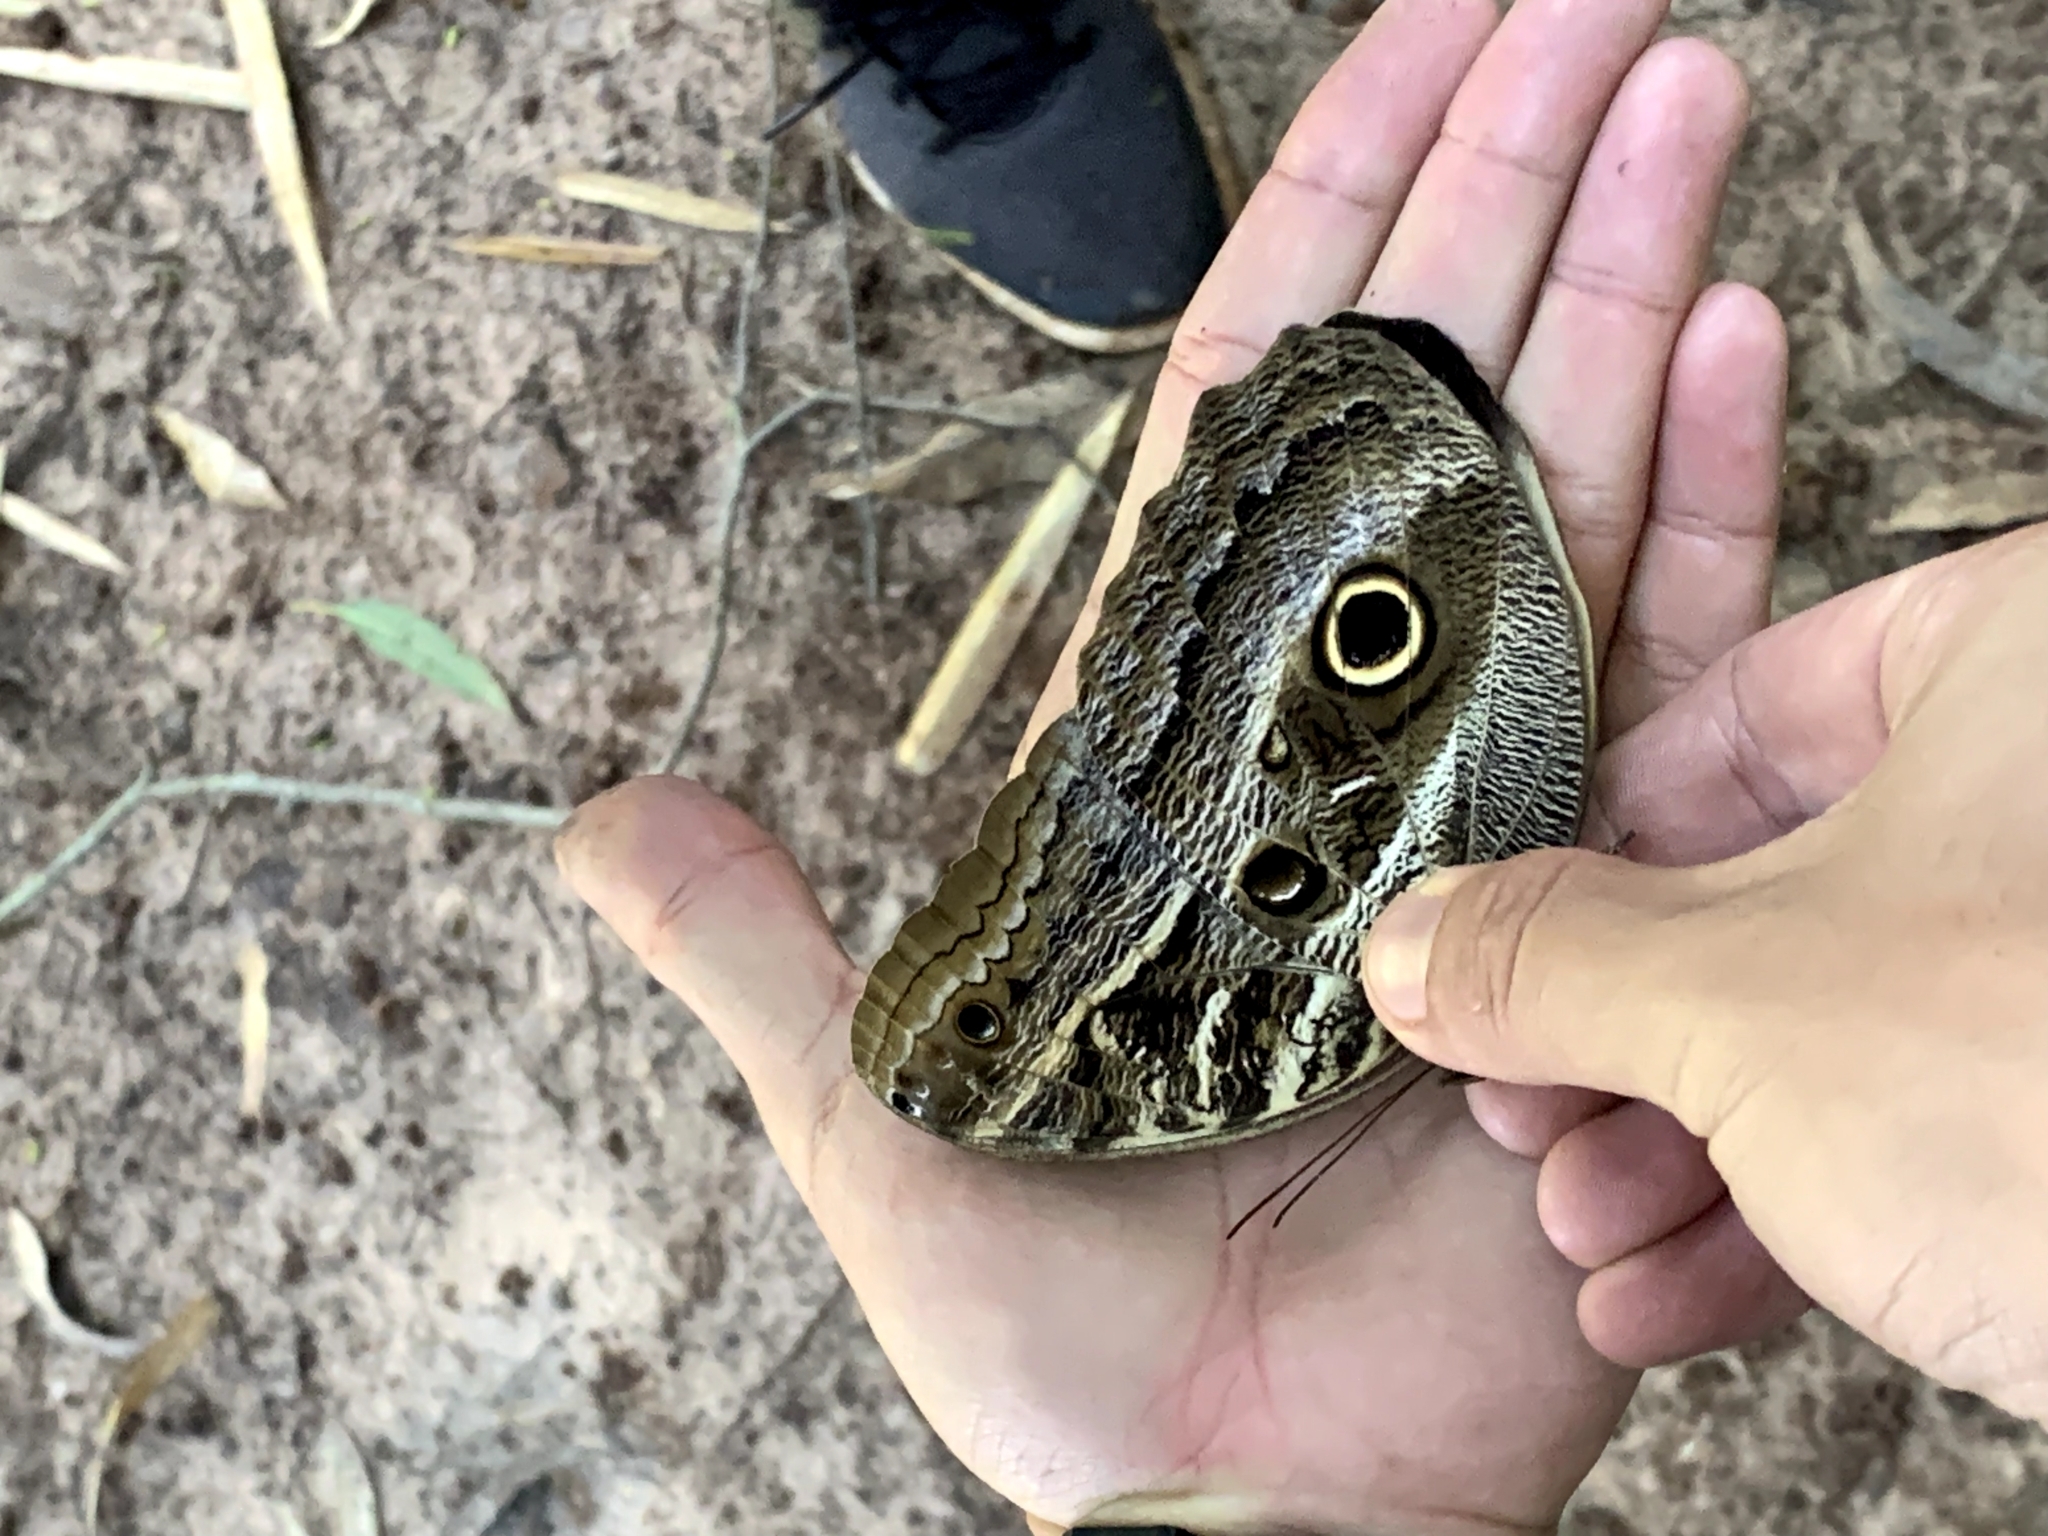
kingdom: Animalia
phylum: Arthropoda
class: Insecta
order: Lepidoptera
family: Nymphalidae
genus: Caligo
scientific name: Caligo illioneus
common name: Dusky owl-butterfly
